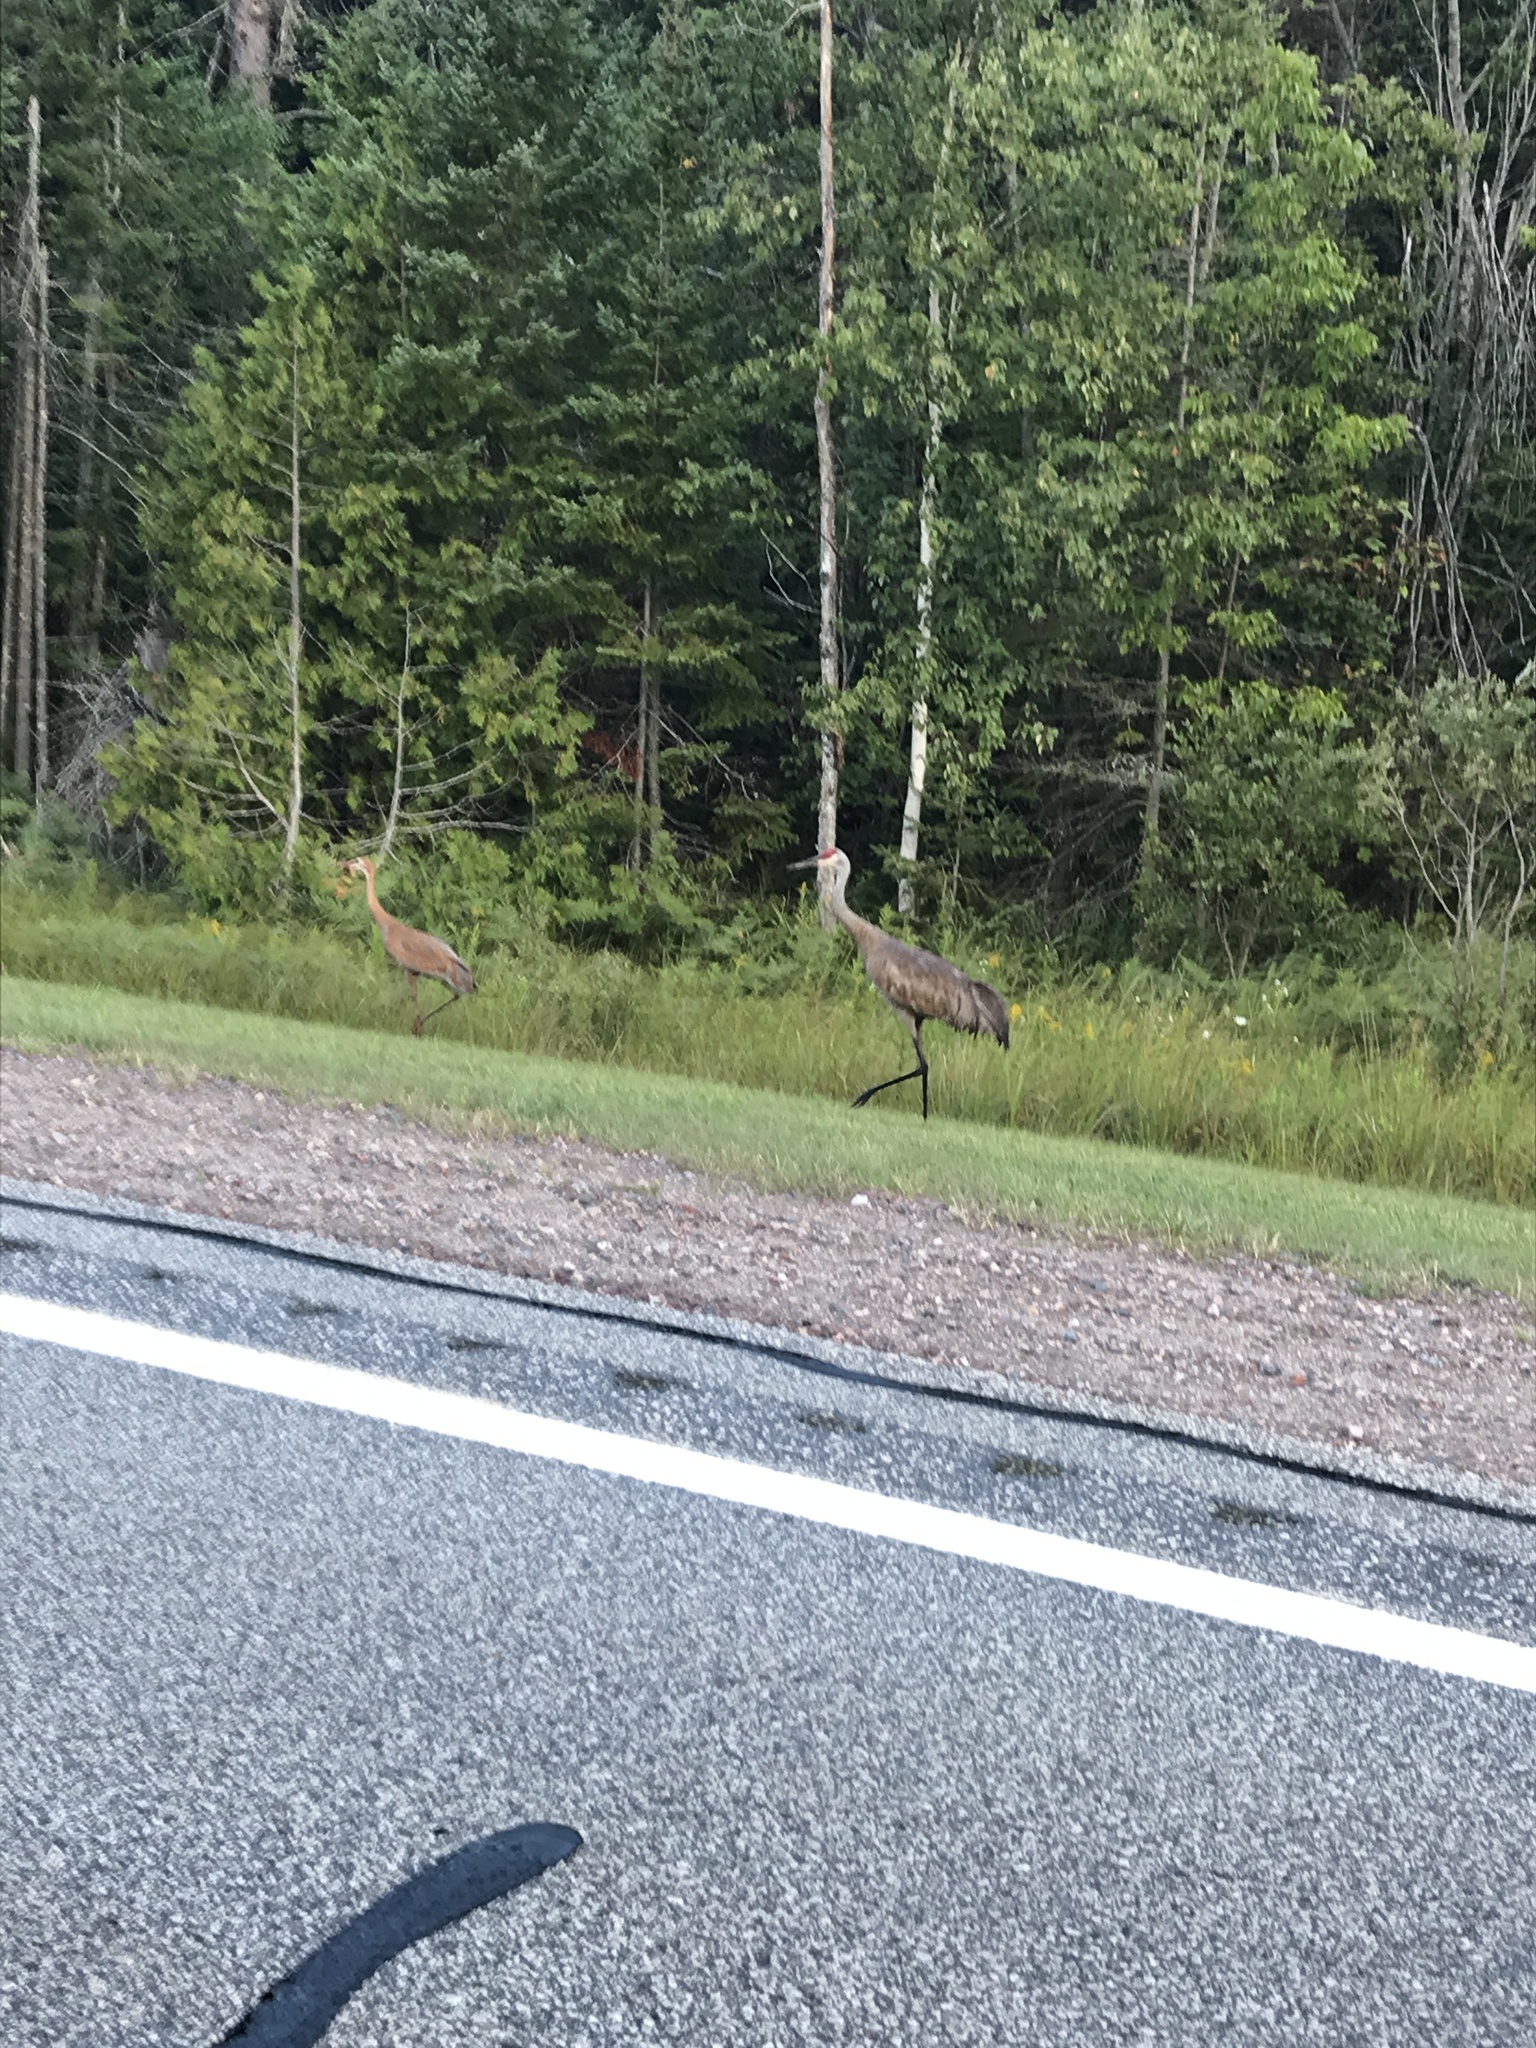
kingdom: Animalia
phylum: Chordata
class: Aves
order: Gruiformes
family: Gruidae
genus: Grus
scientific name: Grus canadensis
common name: Sandhill crane
